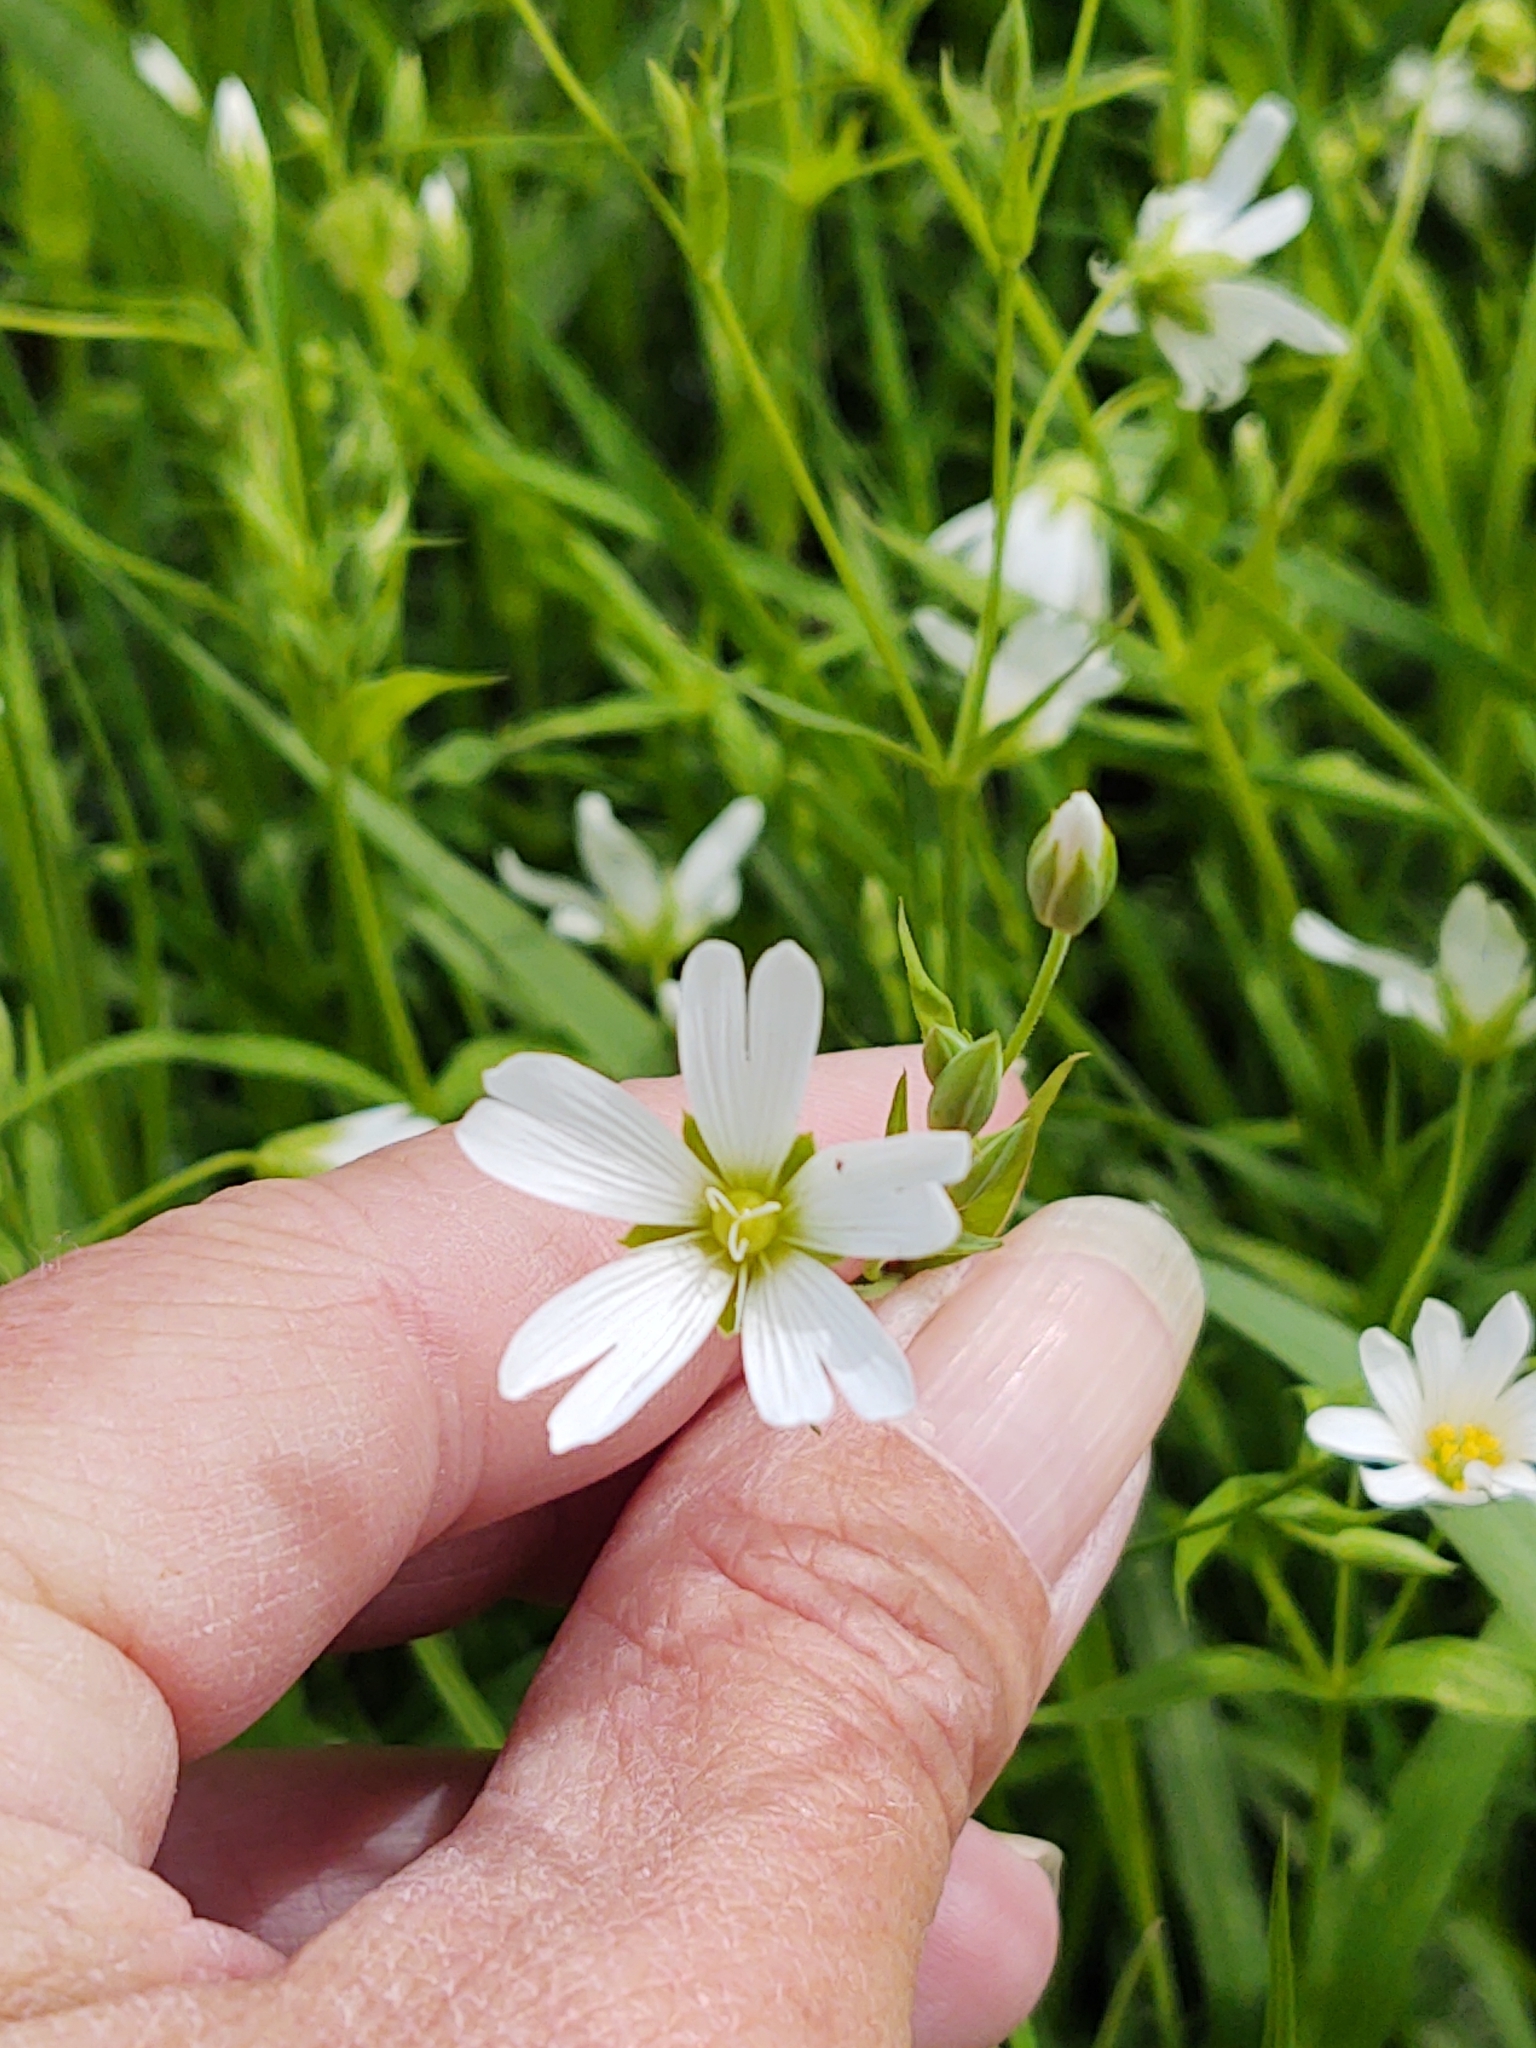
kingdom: Plantae
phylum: Tracheophyta
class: Magnoliopsida
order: Caryophyllales
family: Caryophyllaceae
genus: Rabelera
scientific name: Rabelera holostea
